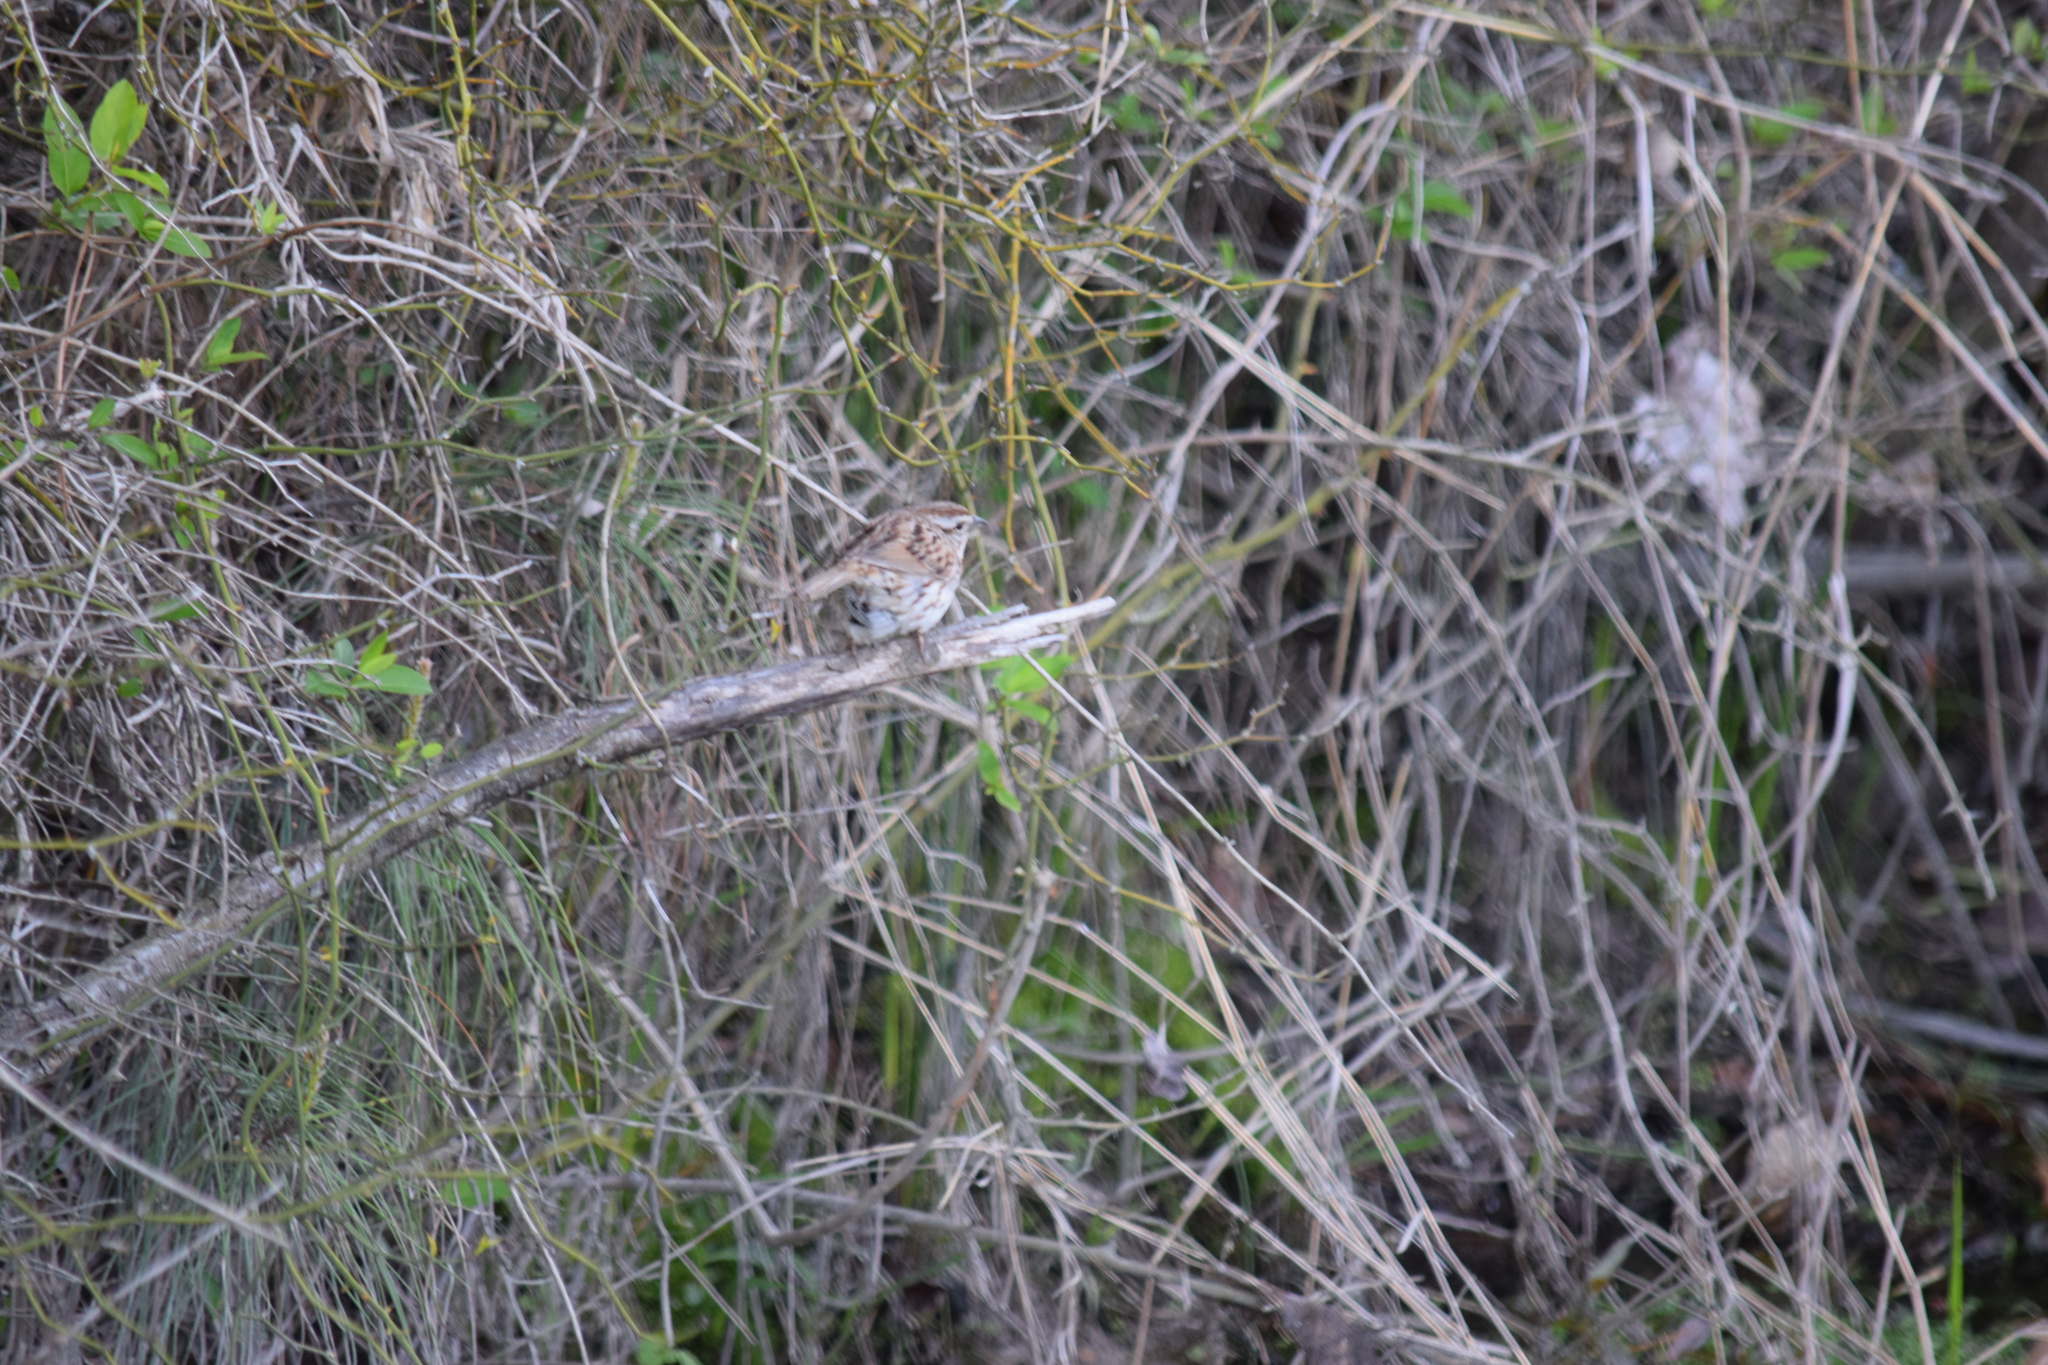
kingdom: Animalia
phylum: Chordata
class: Aves
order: Passeriformes
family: Passerellidae
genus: Melospiza
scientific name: Melospiza melodia
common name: Song sparrow
